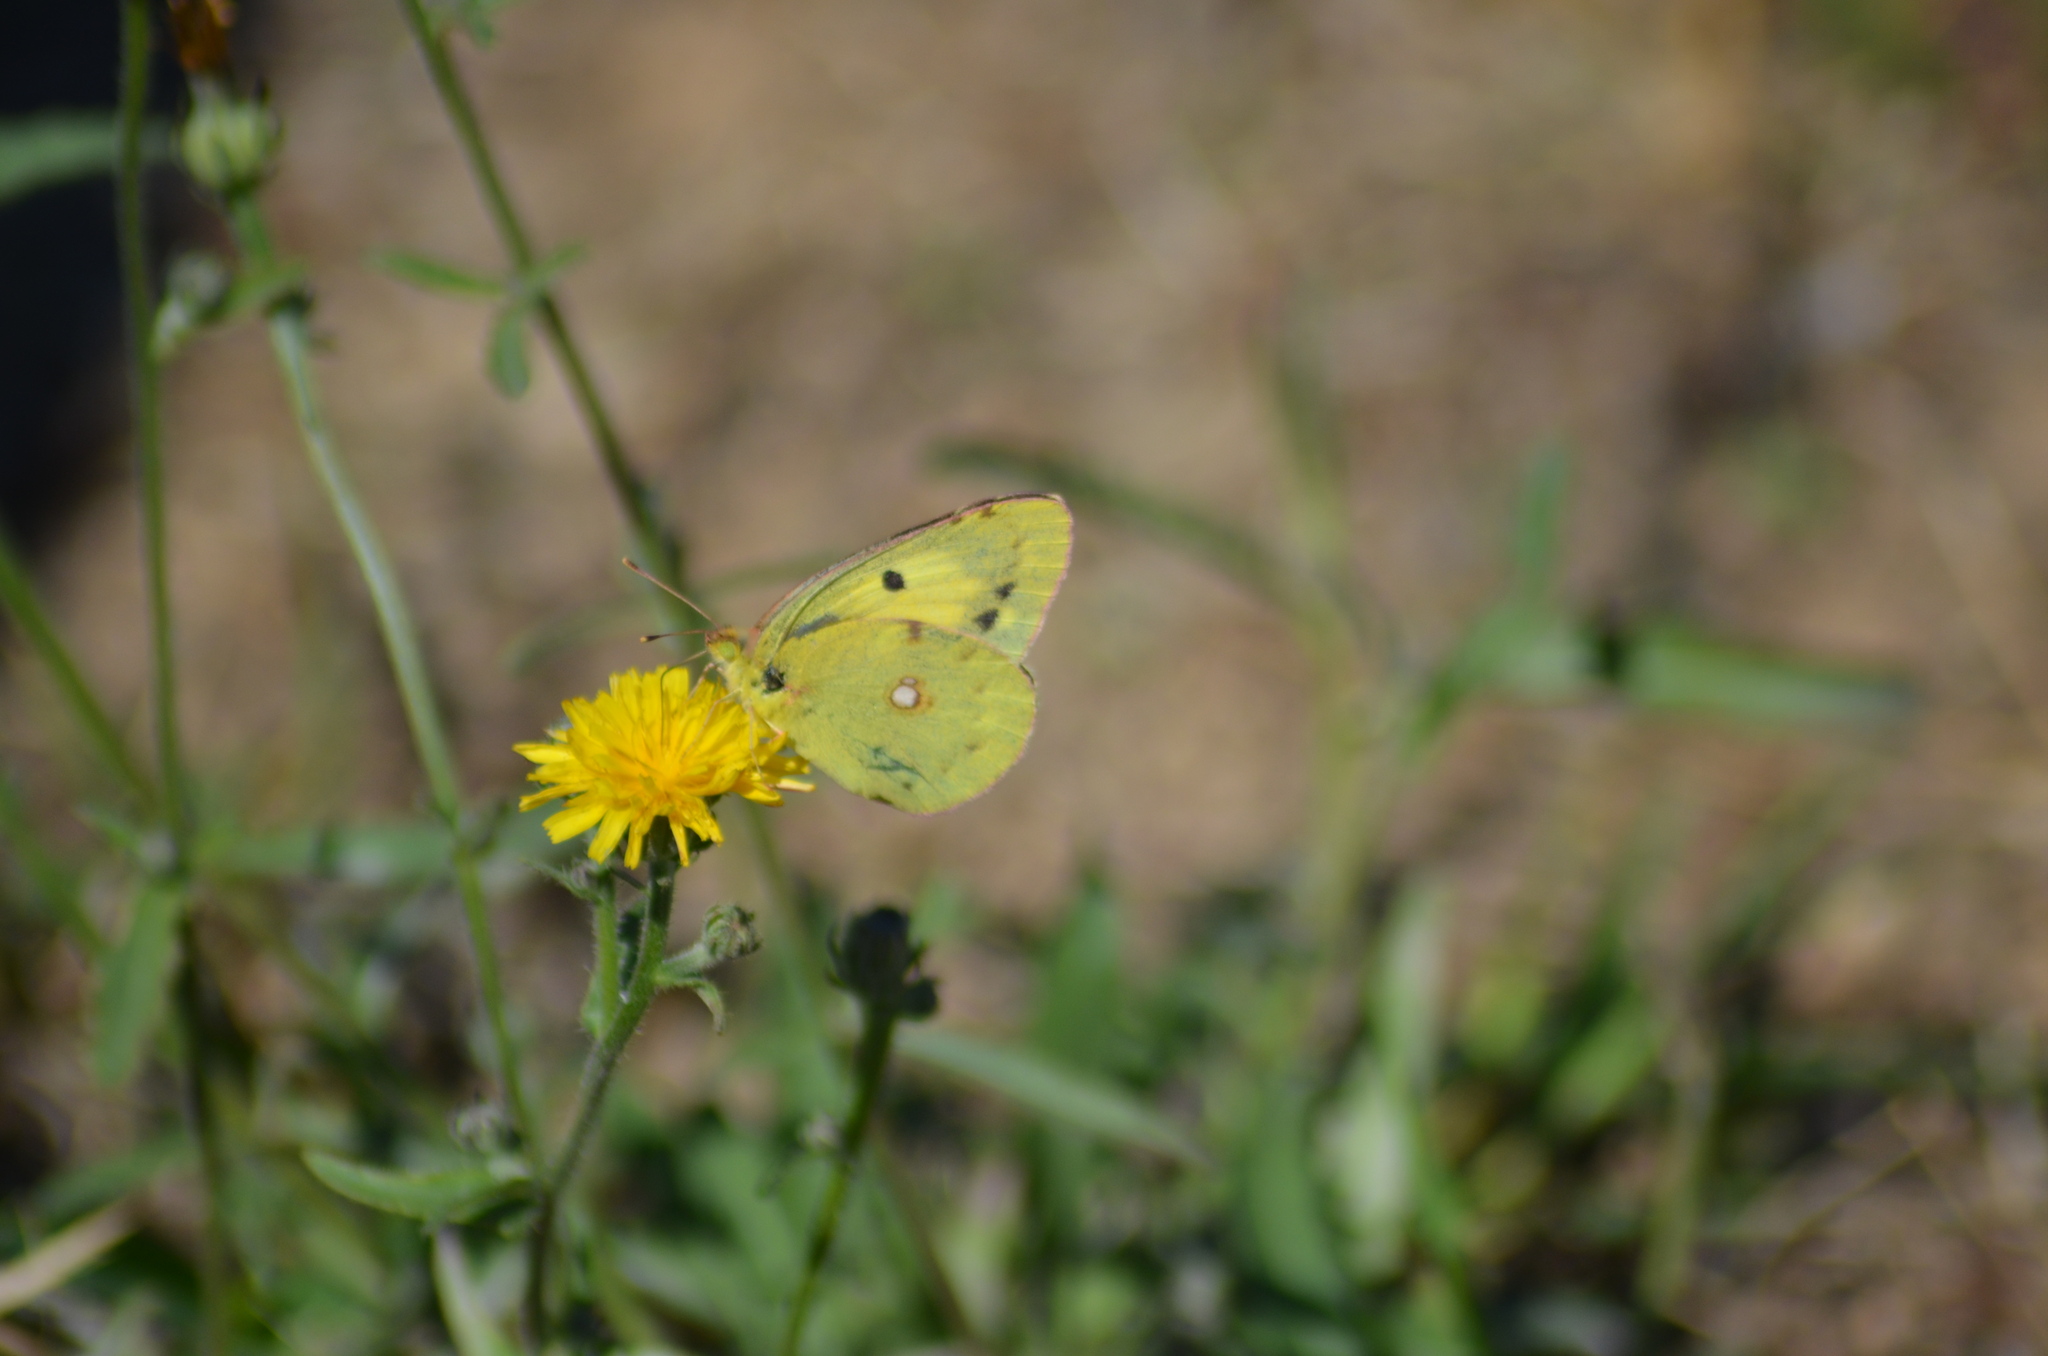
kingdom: Animalia
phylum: Arthropoda
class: Insecta
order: Lepidoptera
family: Pieridae
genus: Colias
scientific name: Colias croceus
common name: Clouded yellow
